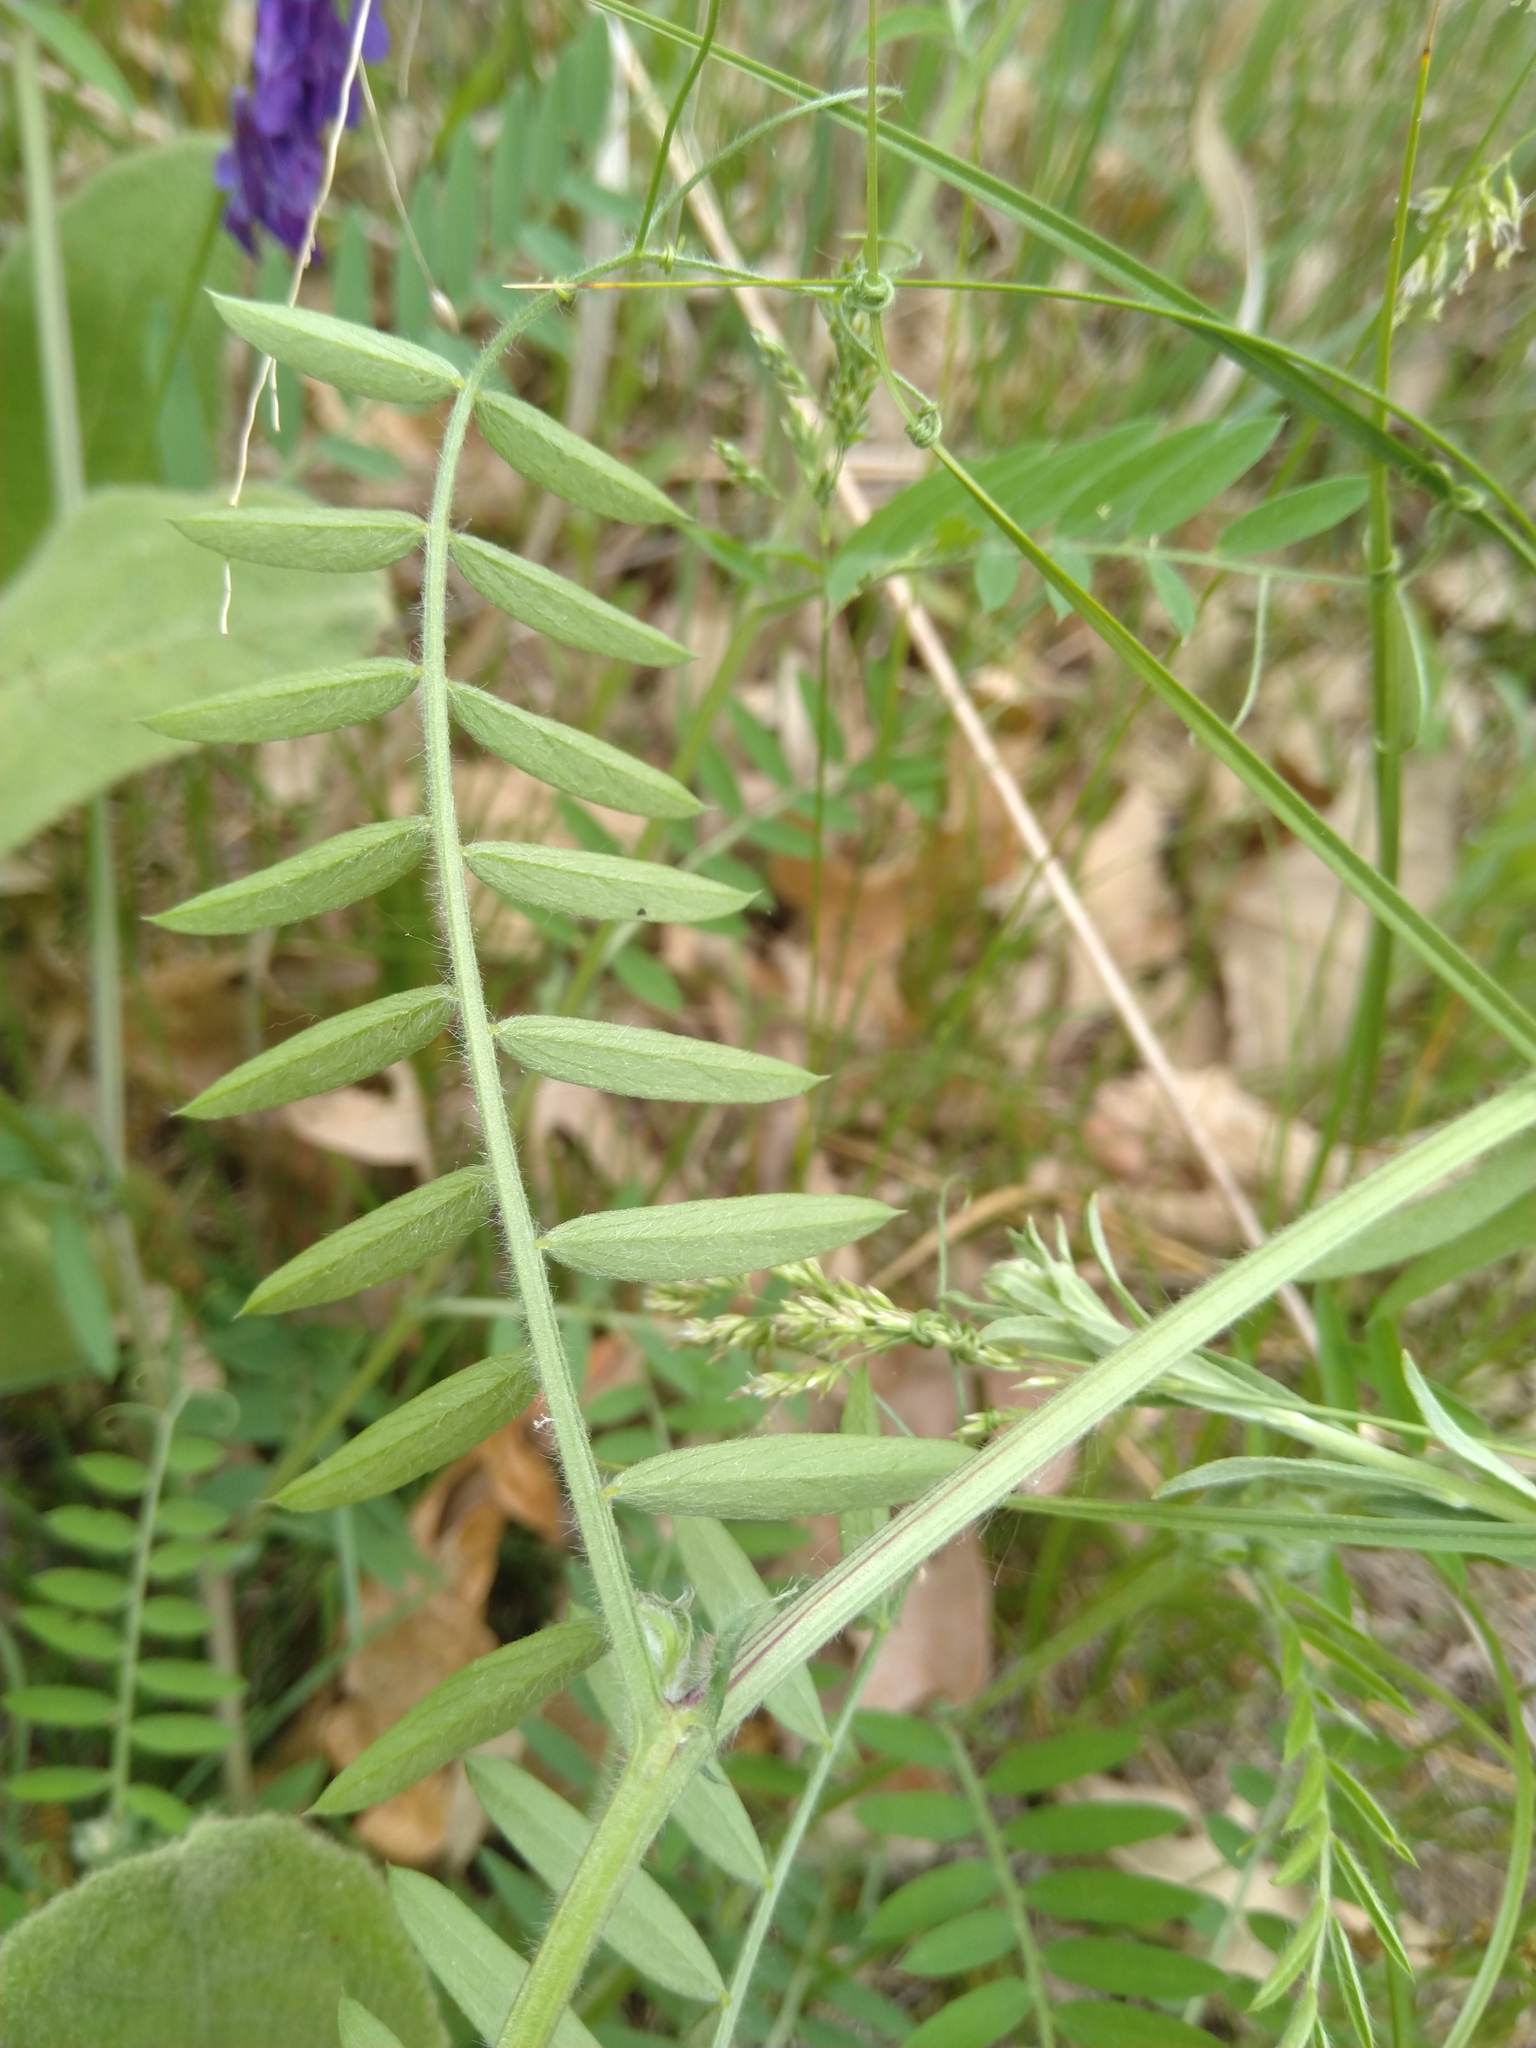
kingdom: Plantae
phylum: Tracheophyta
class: Magnoliopsida
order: Fabales
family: Fabaceae
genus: Vicia
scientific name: Vicia villosa
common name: Fodder vetch
